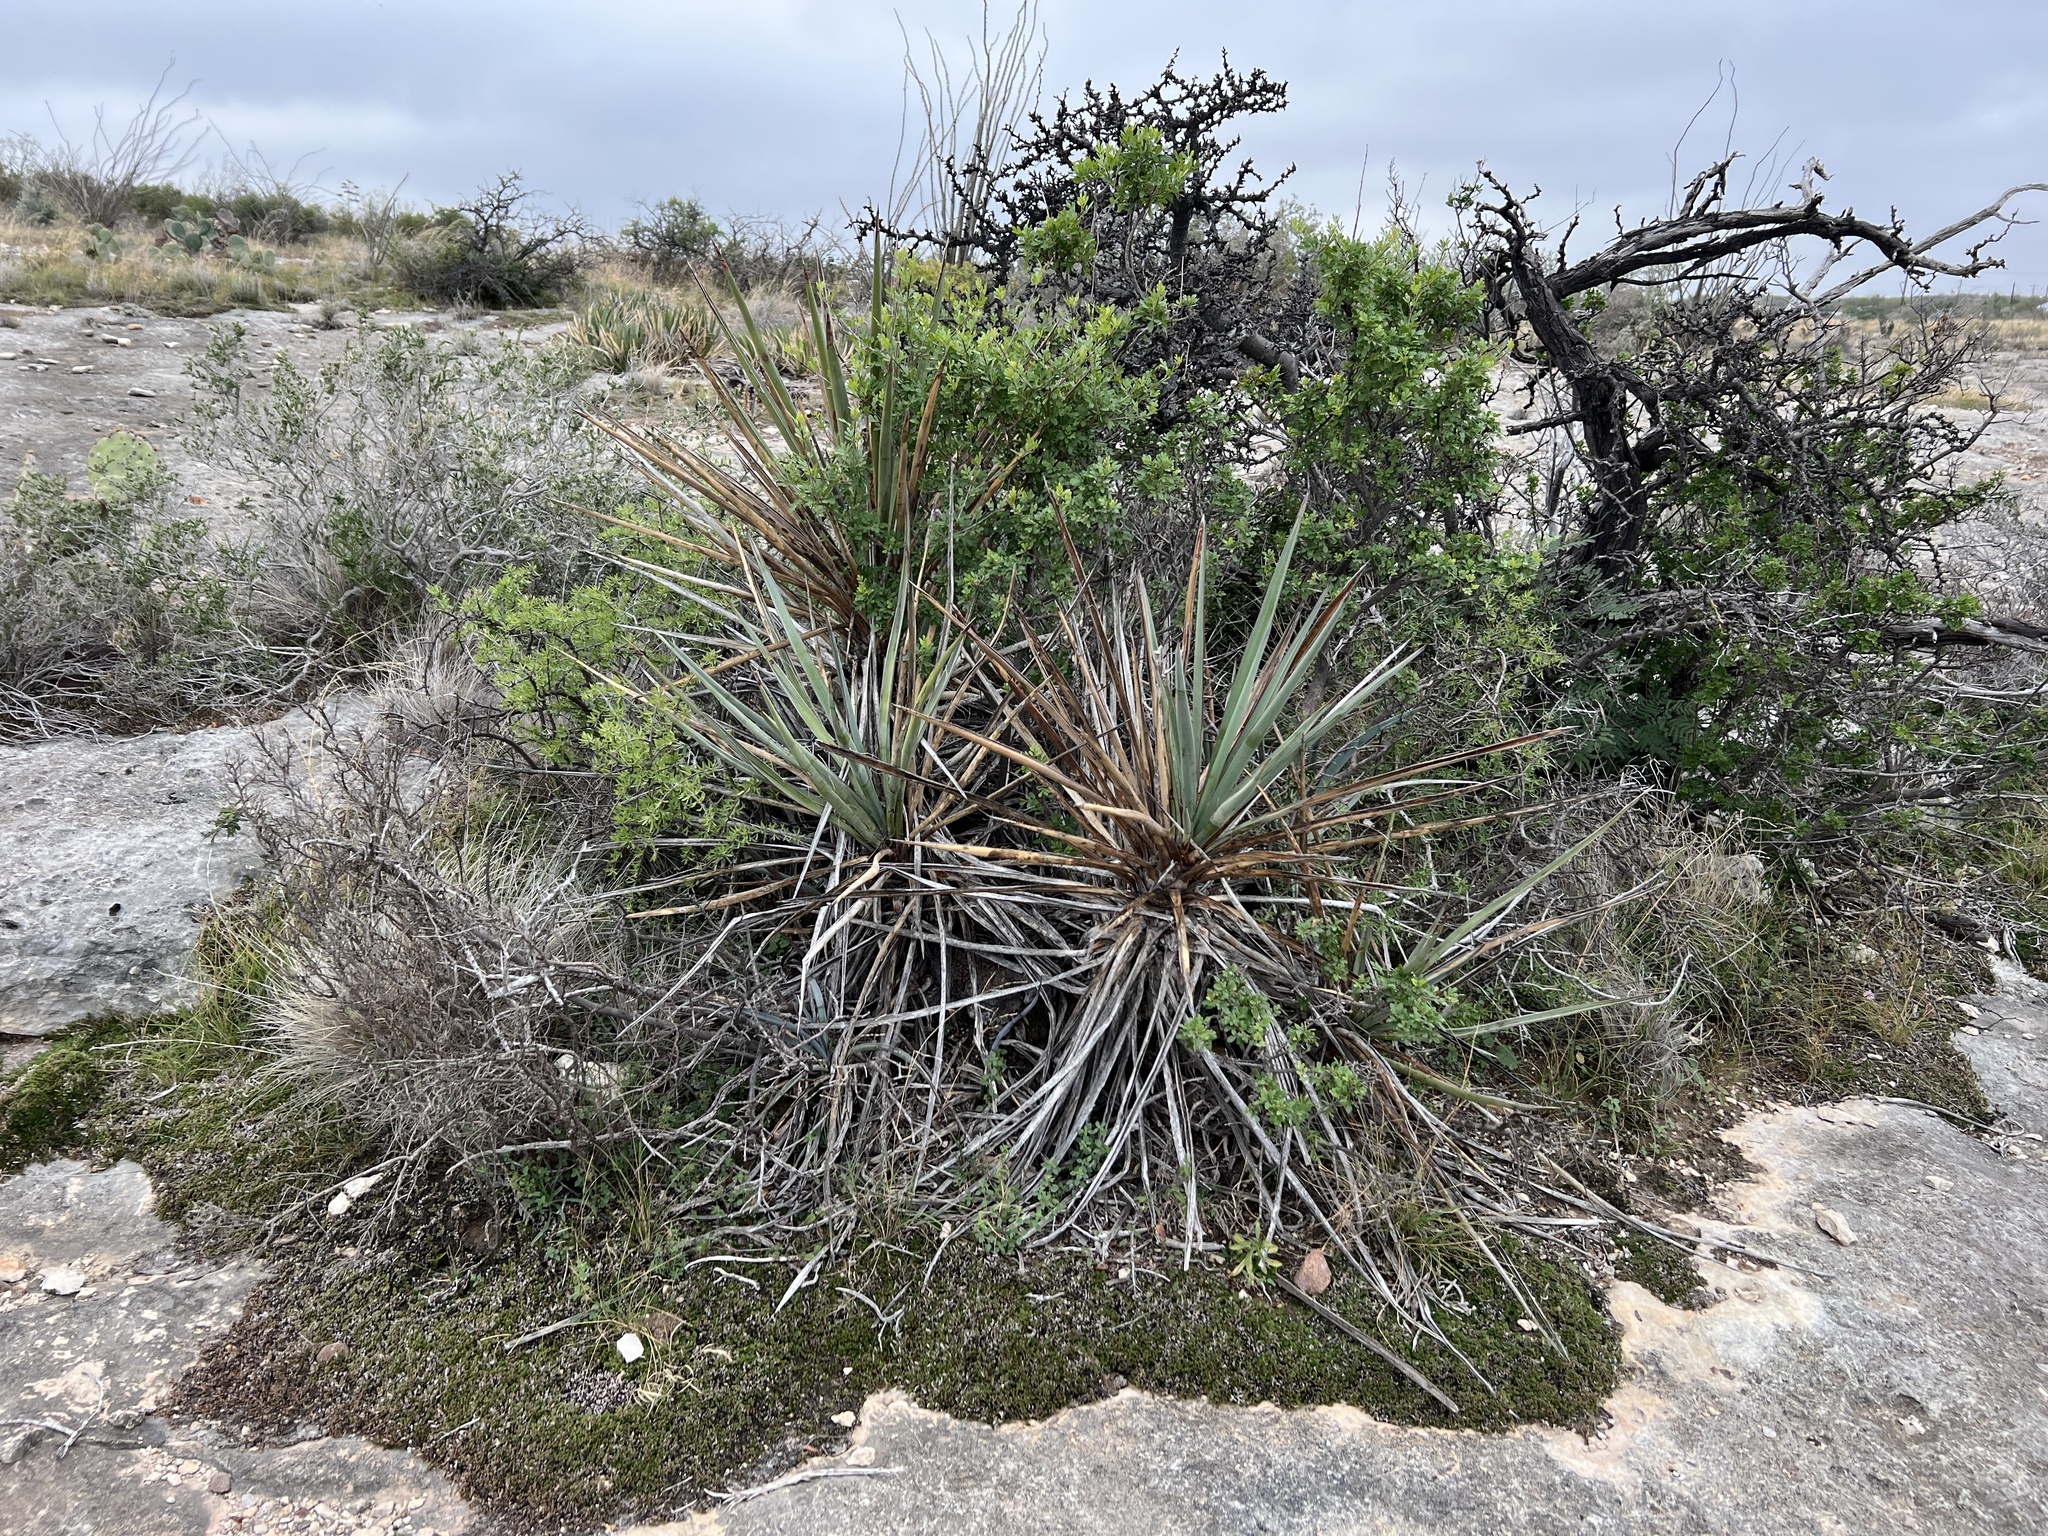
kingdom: Plantae
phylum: Tracheophyta
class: Liliopsida
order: Asparagales
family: Asparagaceae
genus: Yucca
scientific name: Yucca treculiana
